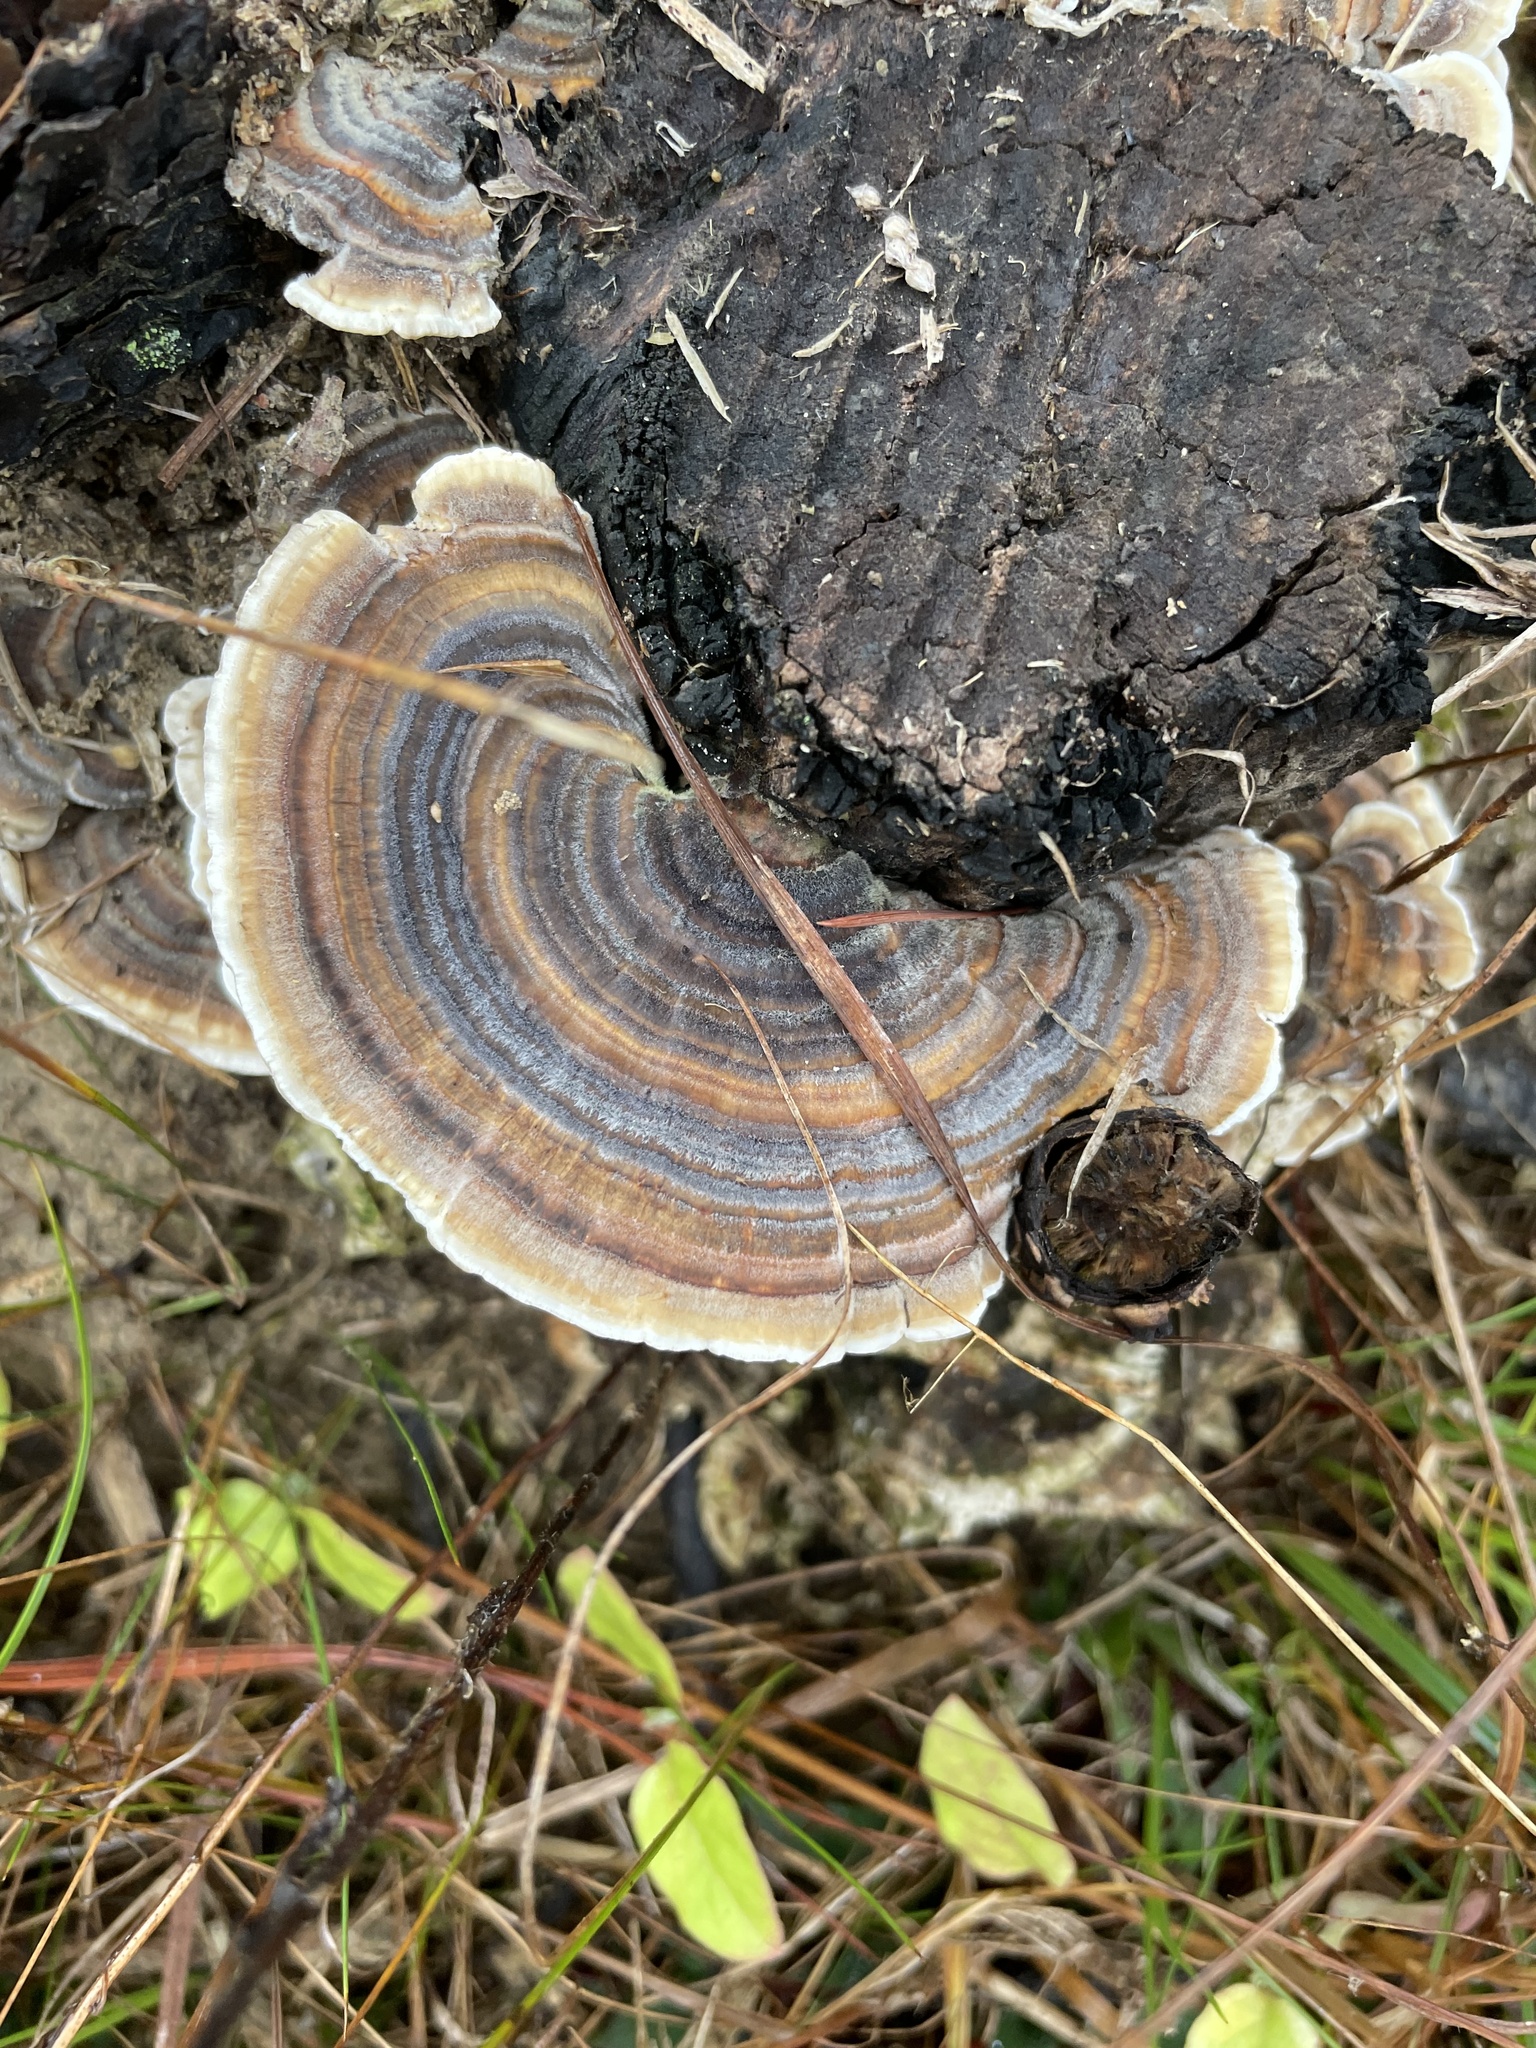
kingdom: Fungi
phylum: Basidiomycota
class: Agaricomycetes
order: Polyporales
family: Polyporaceae
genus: Trametes
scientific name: Trametes versicolor
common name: Turkeytail
